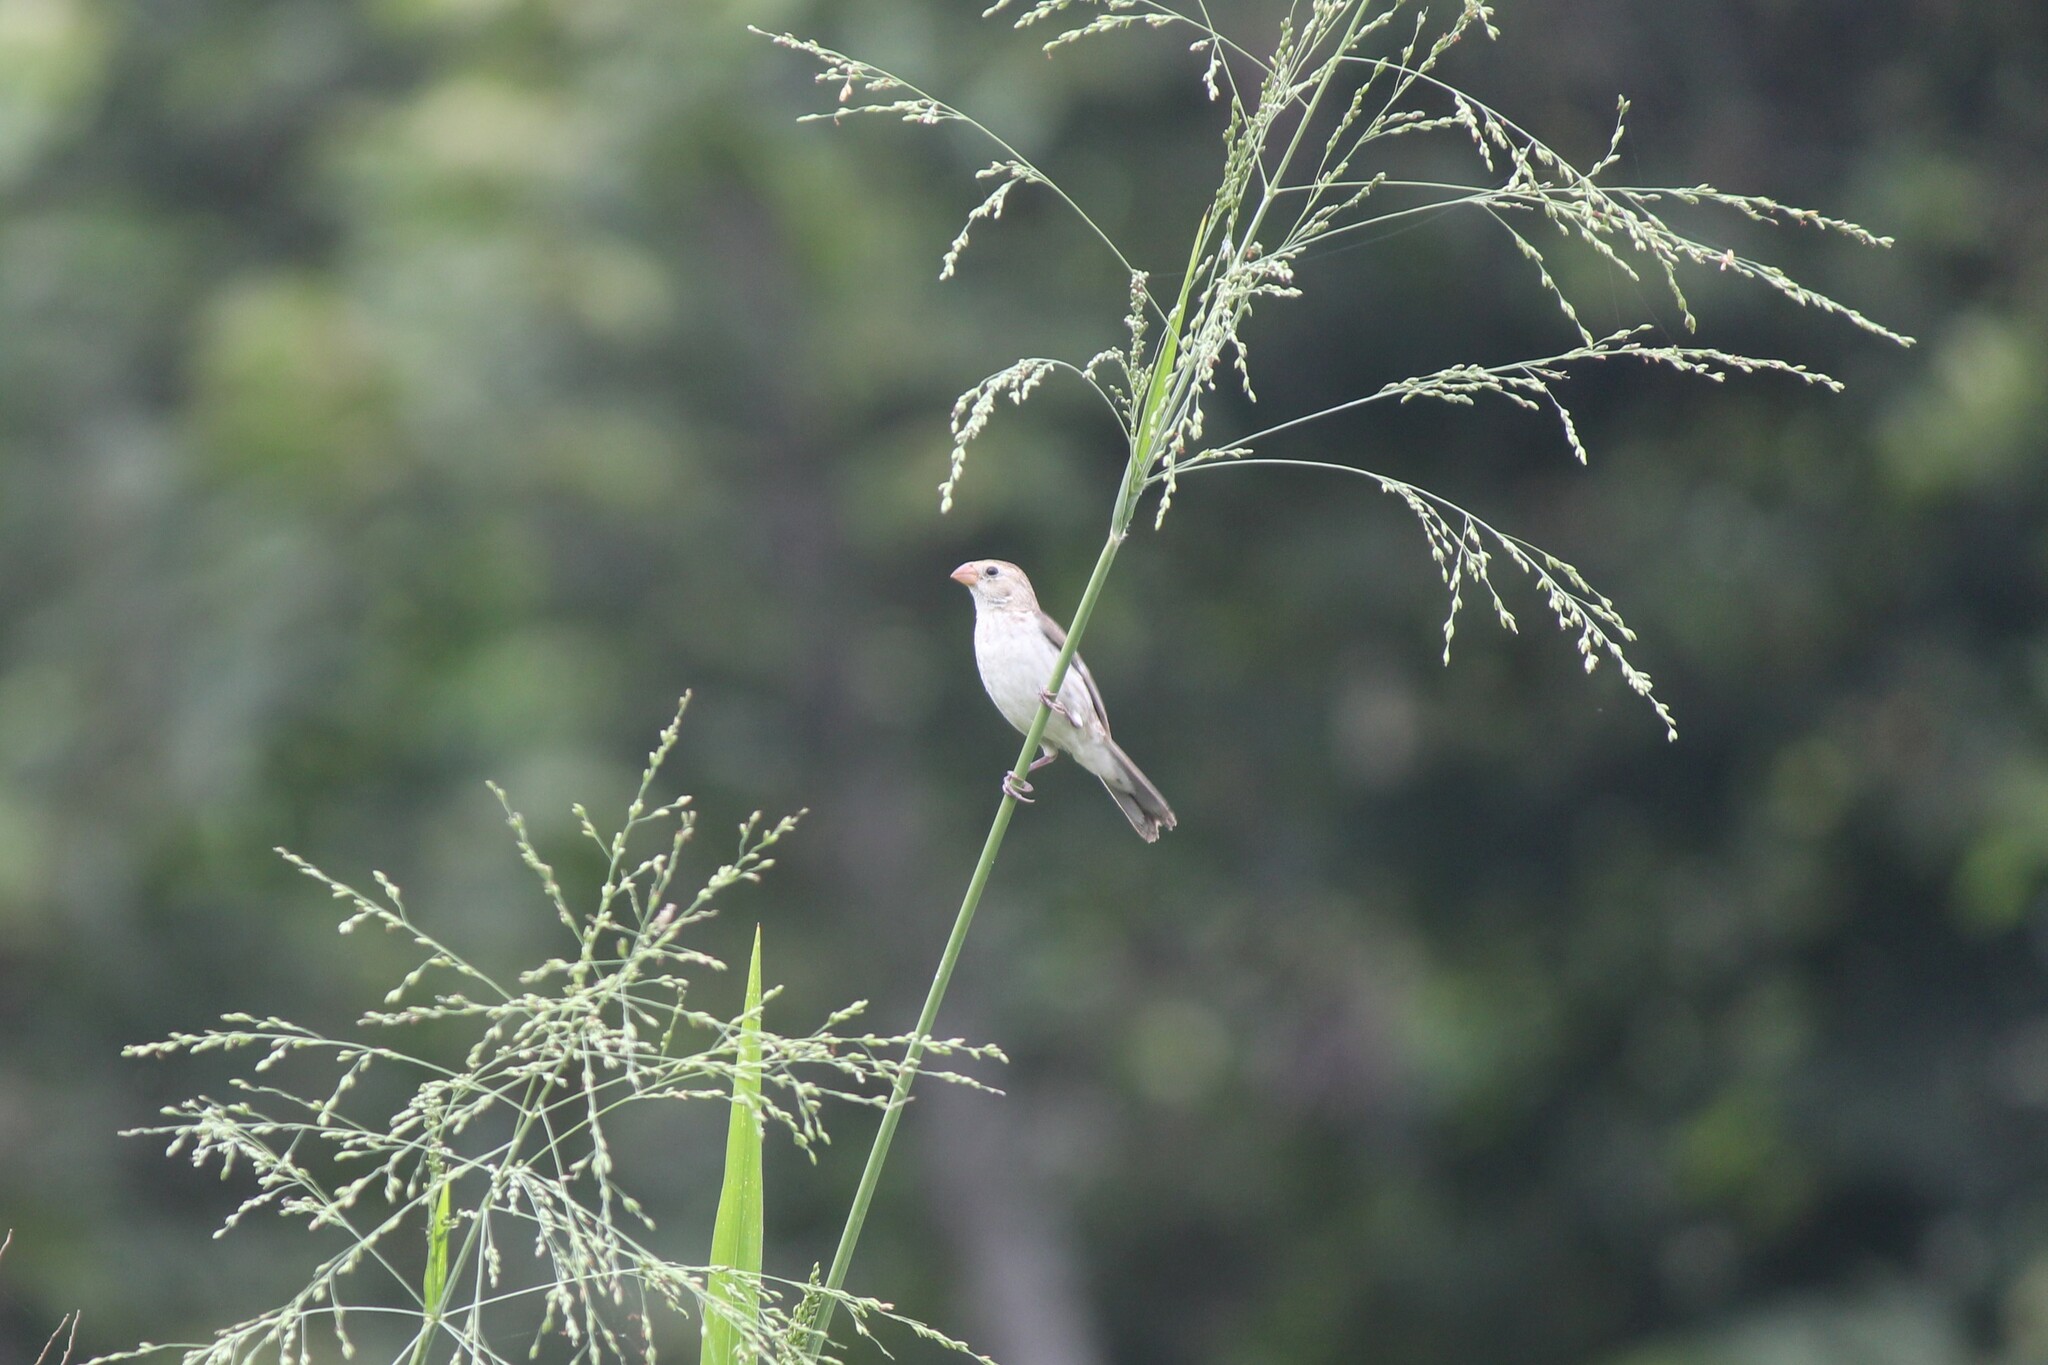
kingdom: Animalia
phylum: Chordata
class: Aves
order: Passeriformes
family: Thraupidae
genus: Sporophila
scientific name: Sporophila telasco
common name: Chestnut-throated seedeater
